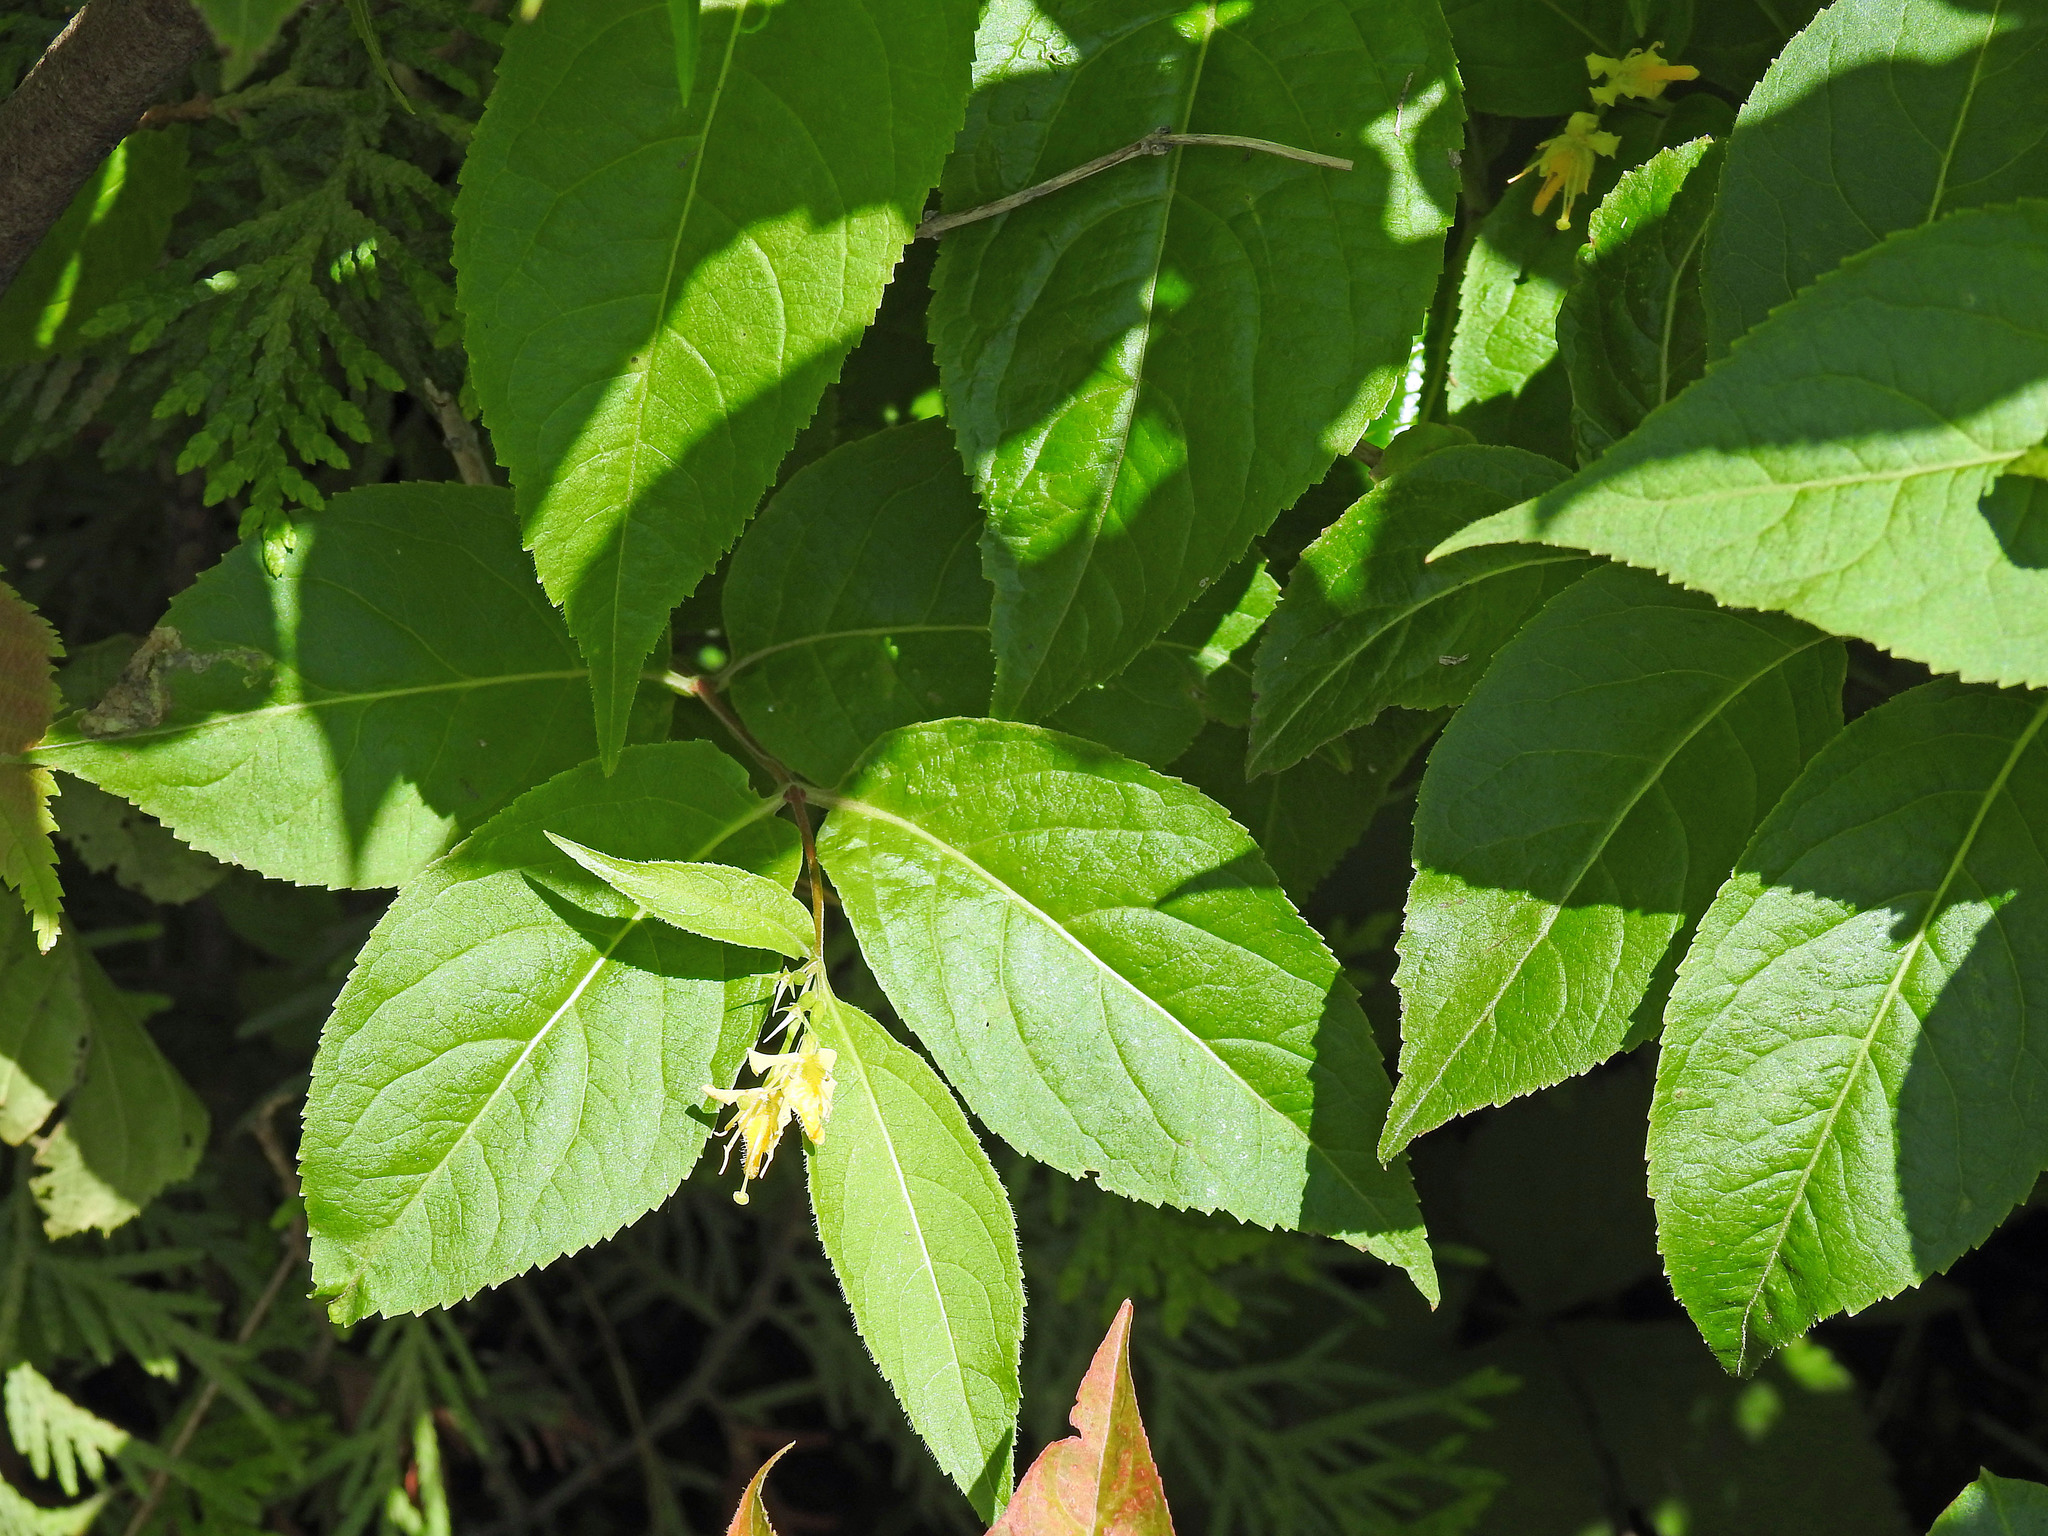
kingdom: Plantae
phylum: Tracheophyta
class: Magnoliopsida
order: Dipsacales
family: Caprifoliaceae
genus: Diervilla
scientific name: Diervilla lonicera
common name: Bush-honeysuckle
